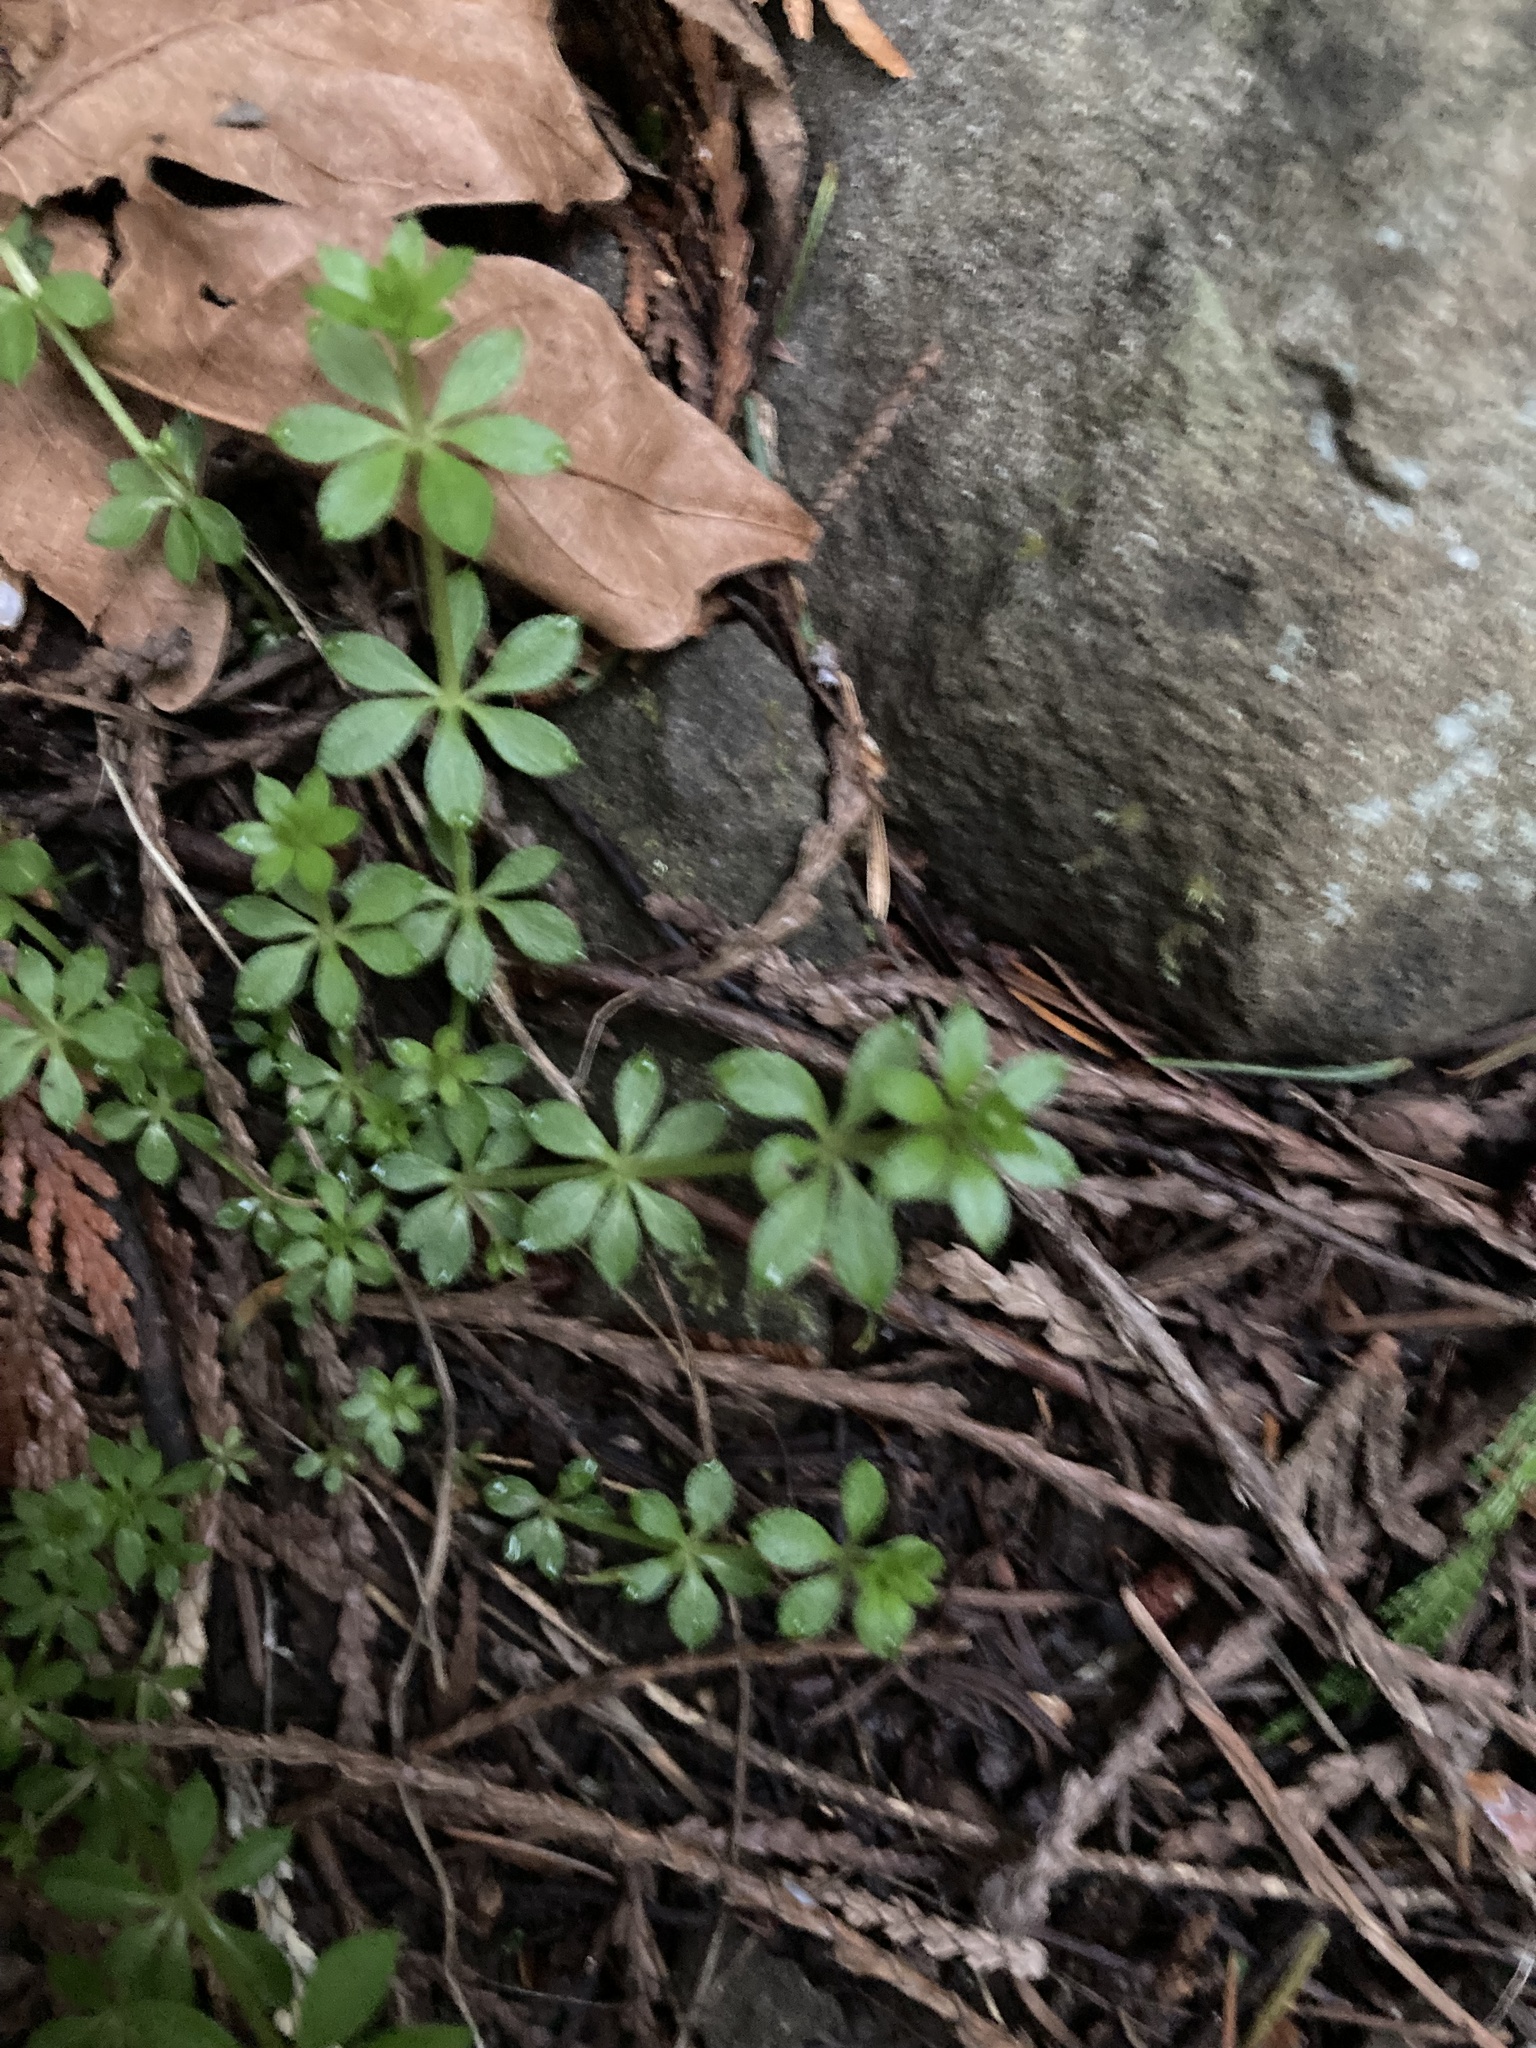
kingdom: Plantae
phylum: Tracheophyta
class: Magnoliopsida
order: Gentianales
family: Rubiaceae
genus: Galium
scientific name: Galium triflorum
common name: Fragrant bedstraw
